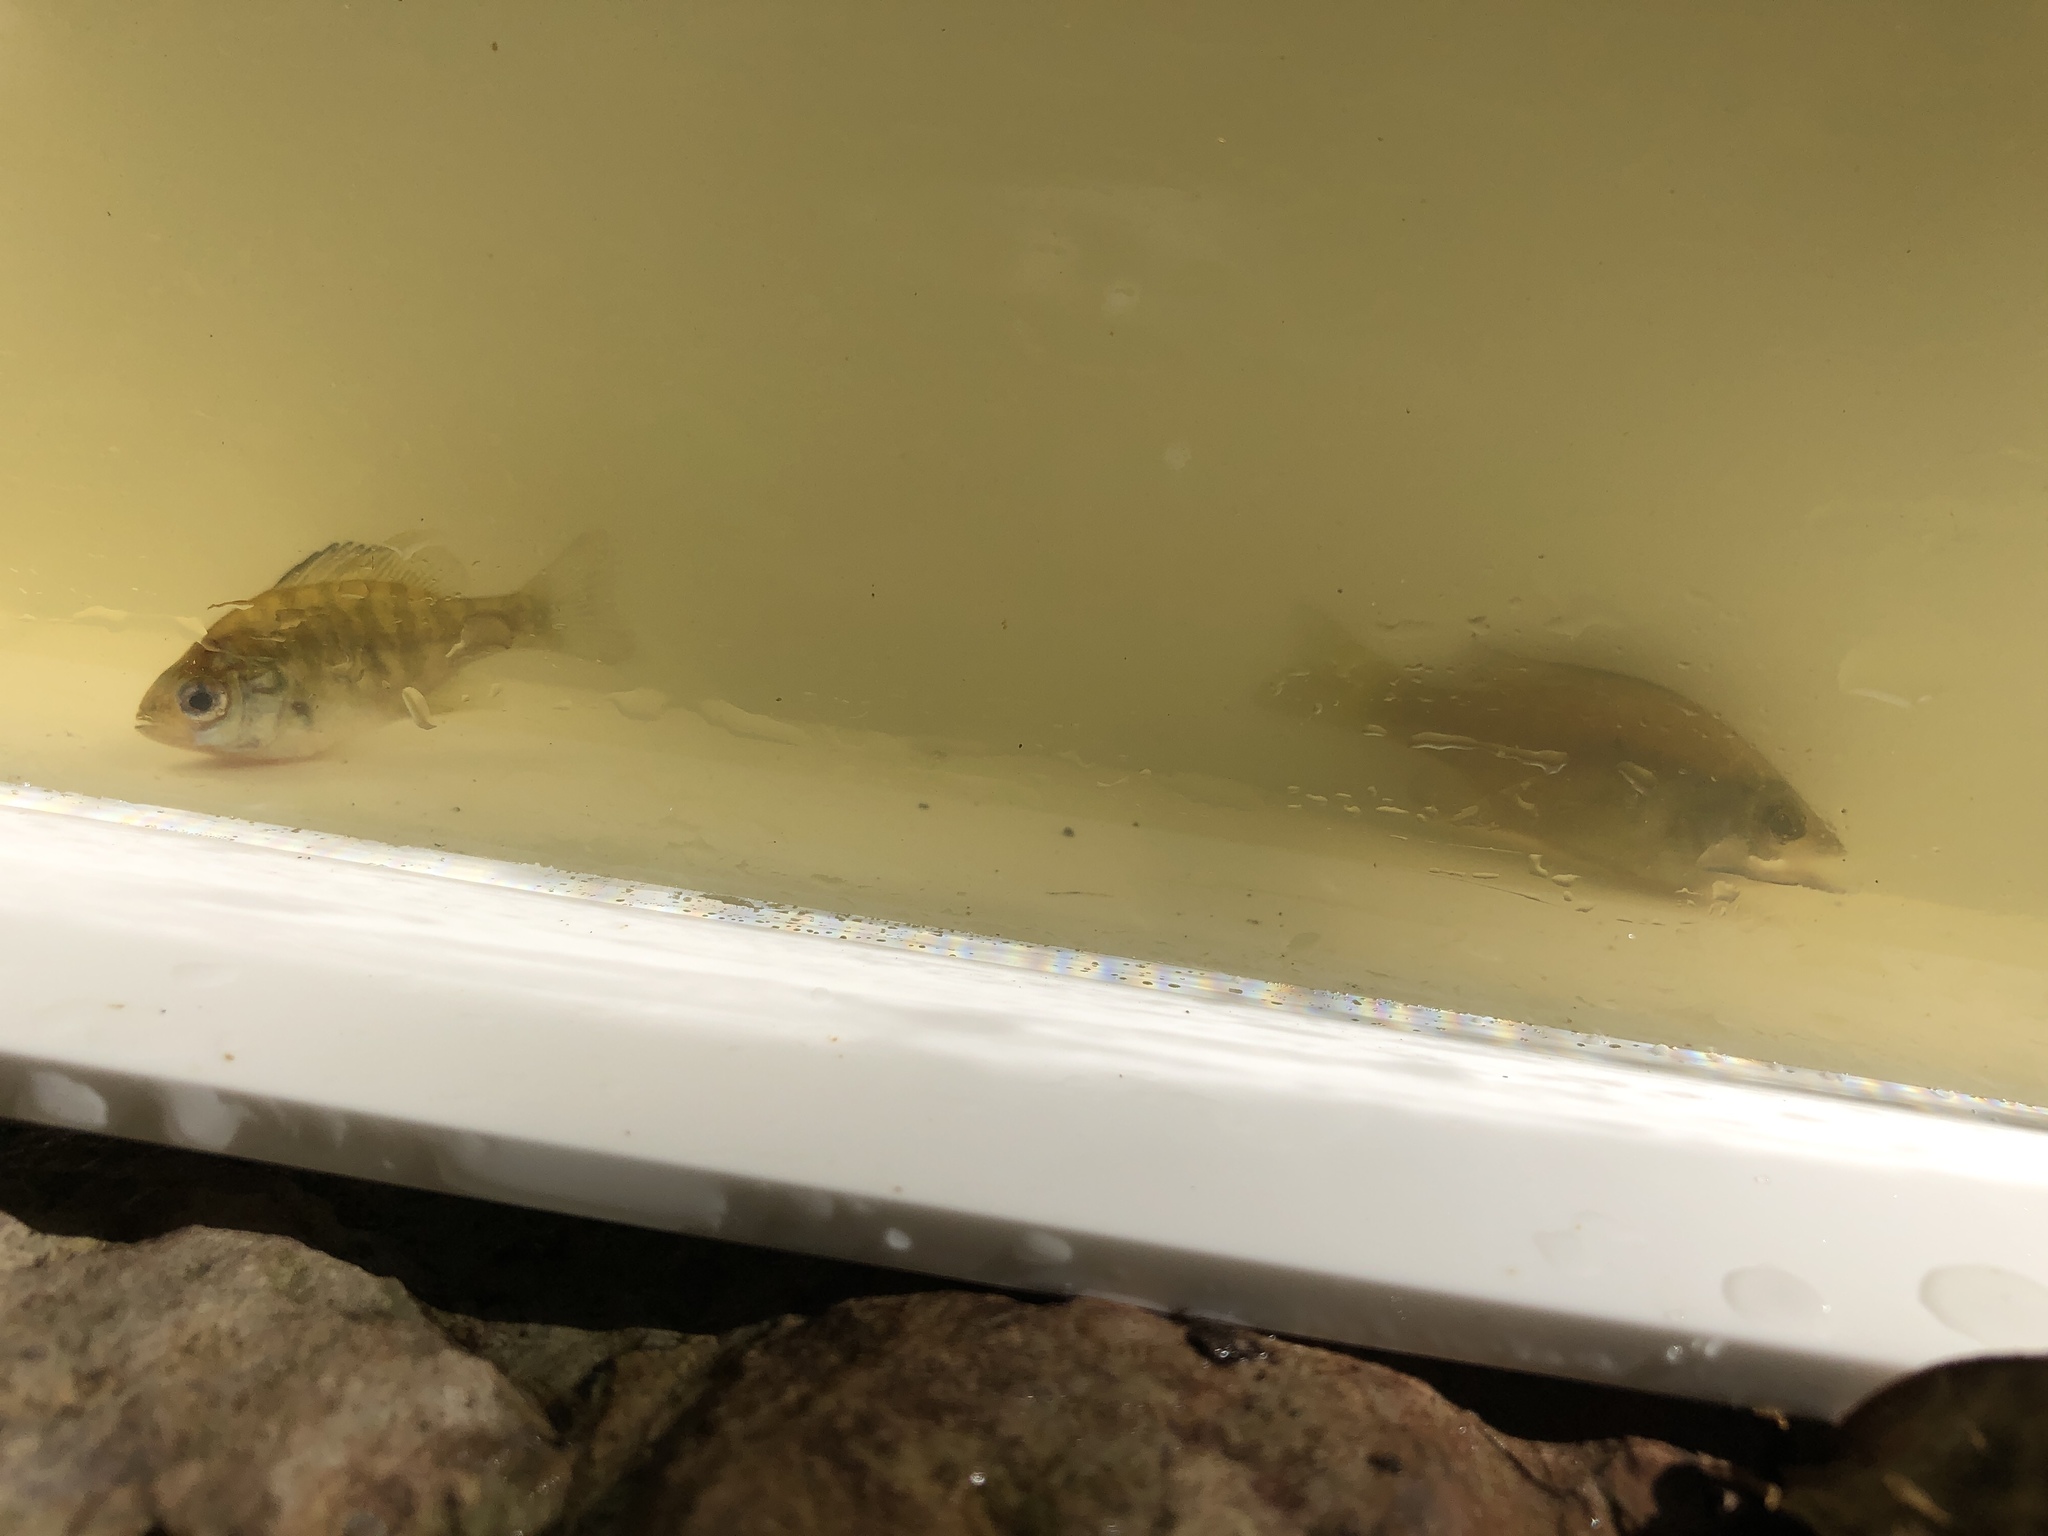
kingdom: Animalia
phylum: Chordata
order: Perciformes
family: Centrarchidae
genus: Lepomis
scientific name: Lepomis macrochirus
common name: Bluegill
